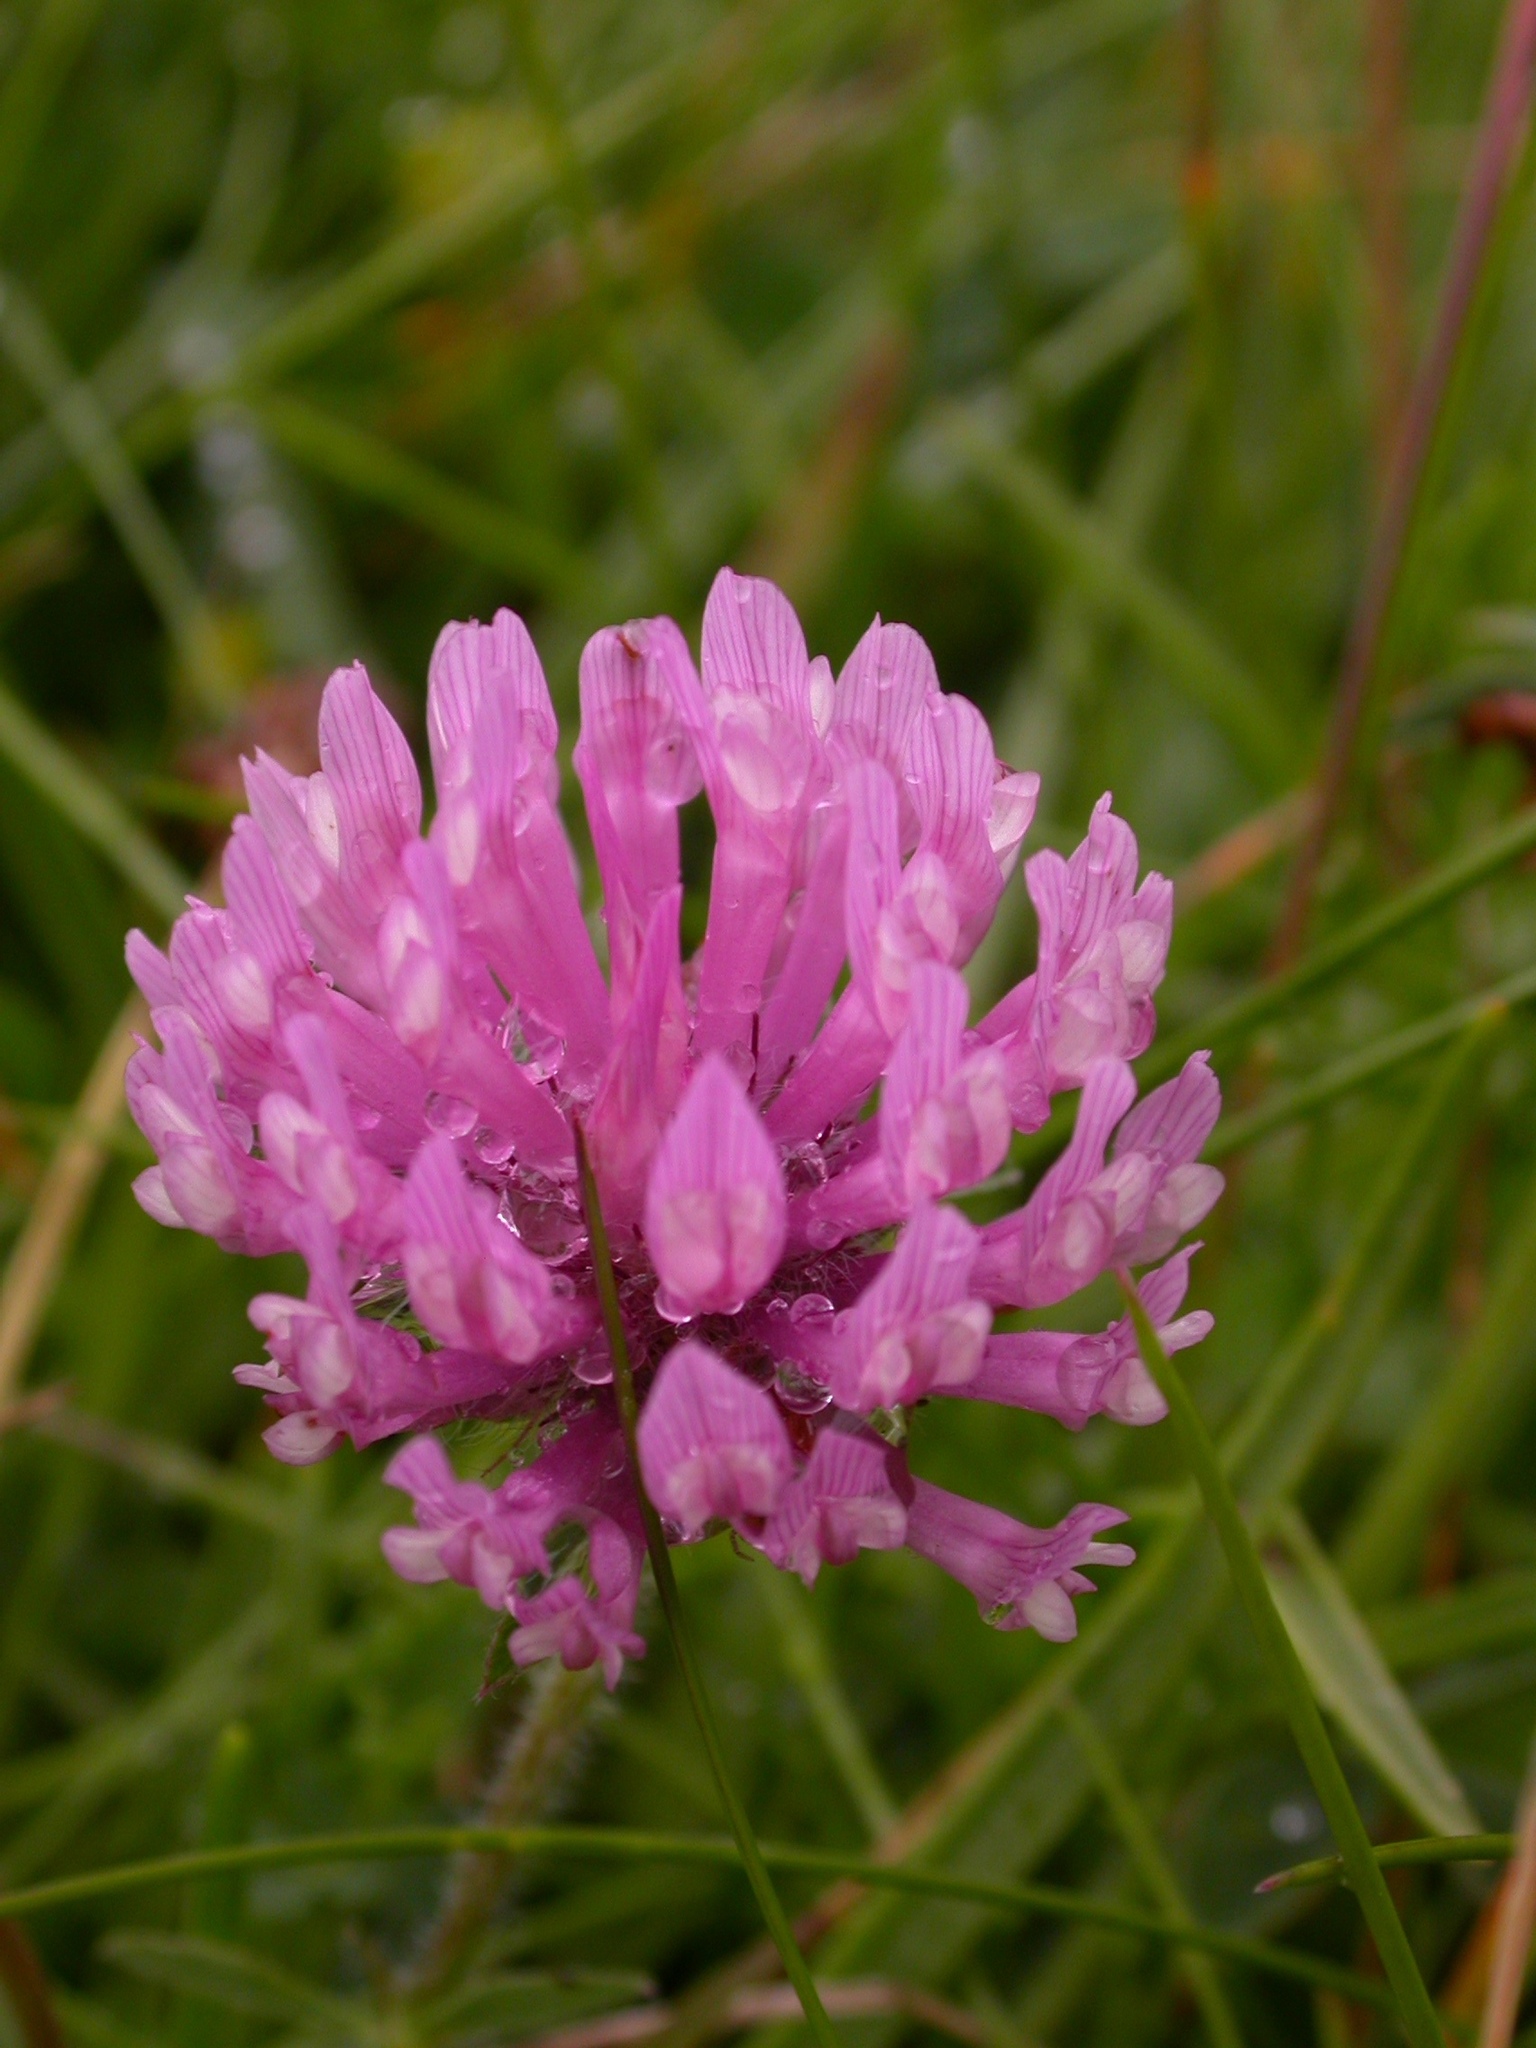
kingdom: Plantae
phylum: Tracheophyta
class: Magnoliopsida
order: Fabales
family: Fabaceae
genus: Trifolium
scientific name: Trifolium pratense
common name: Red clover
